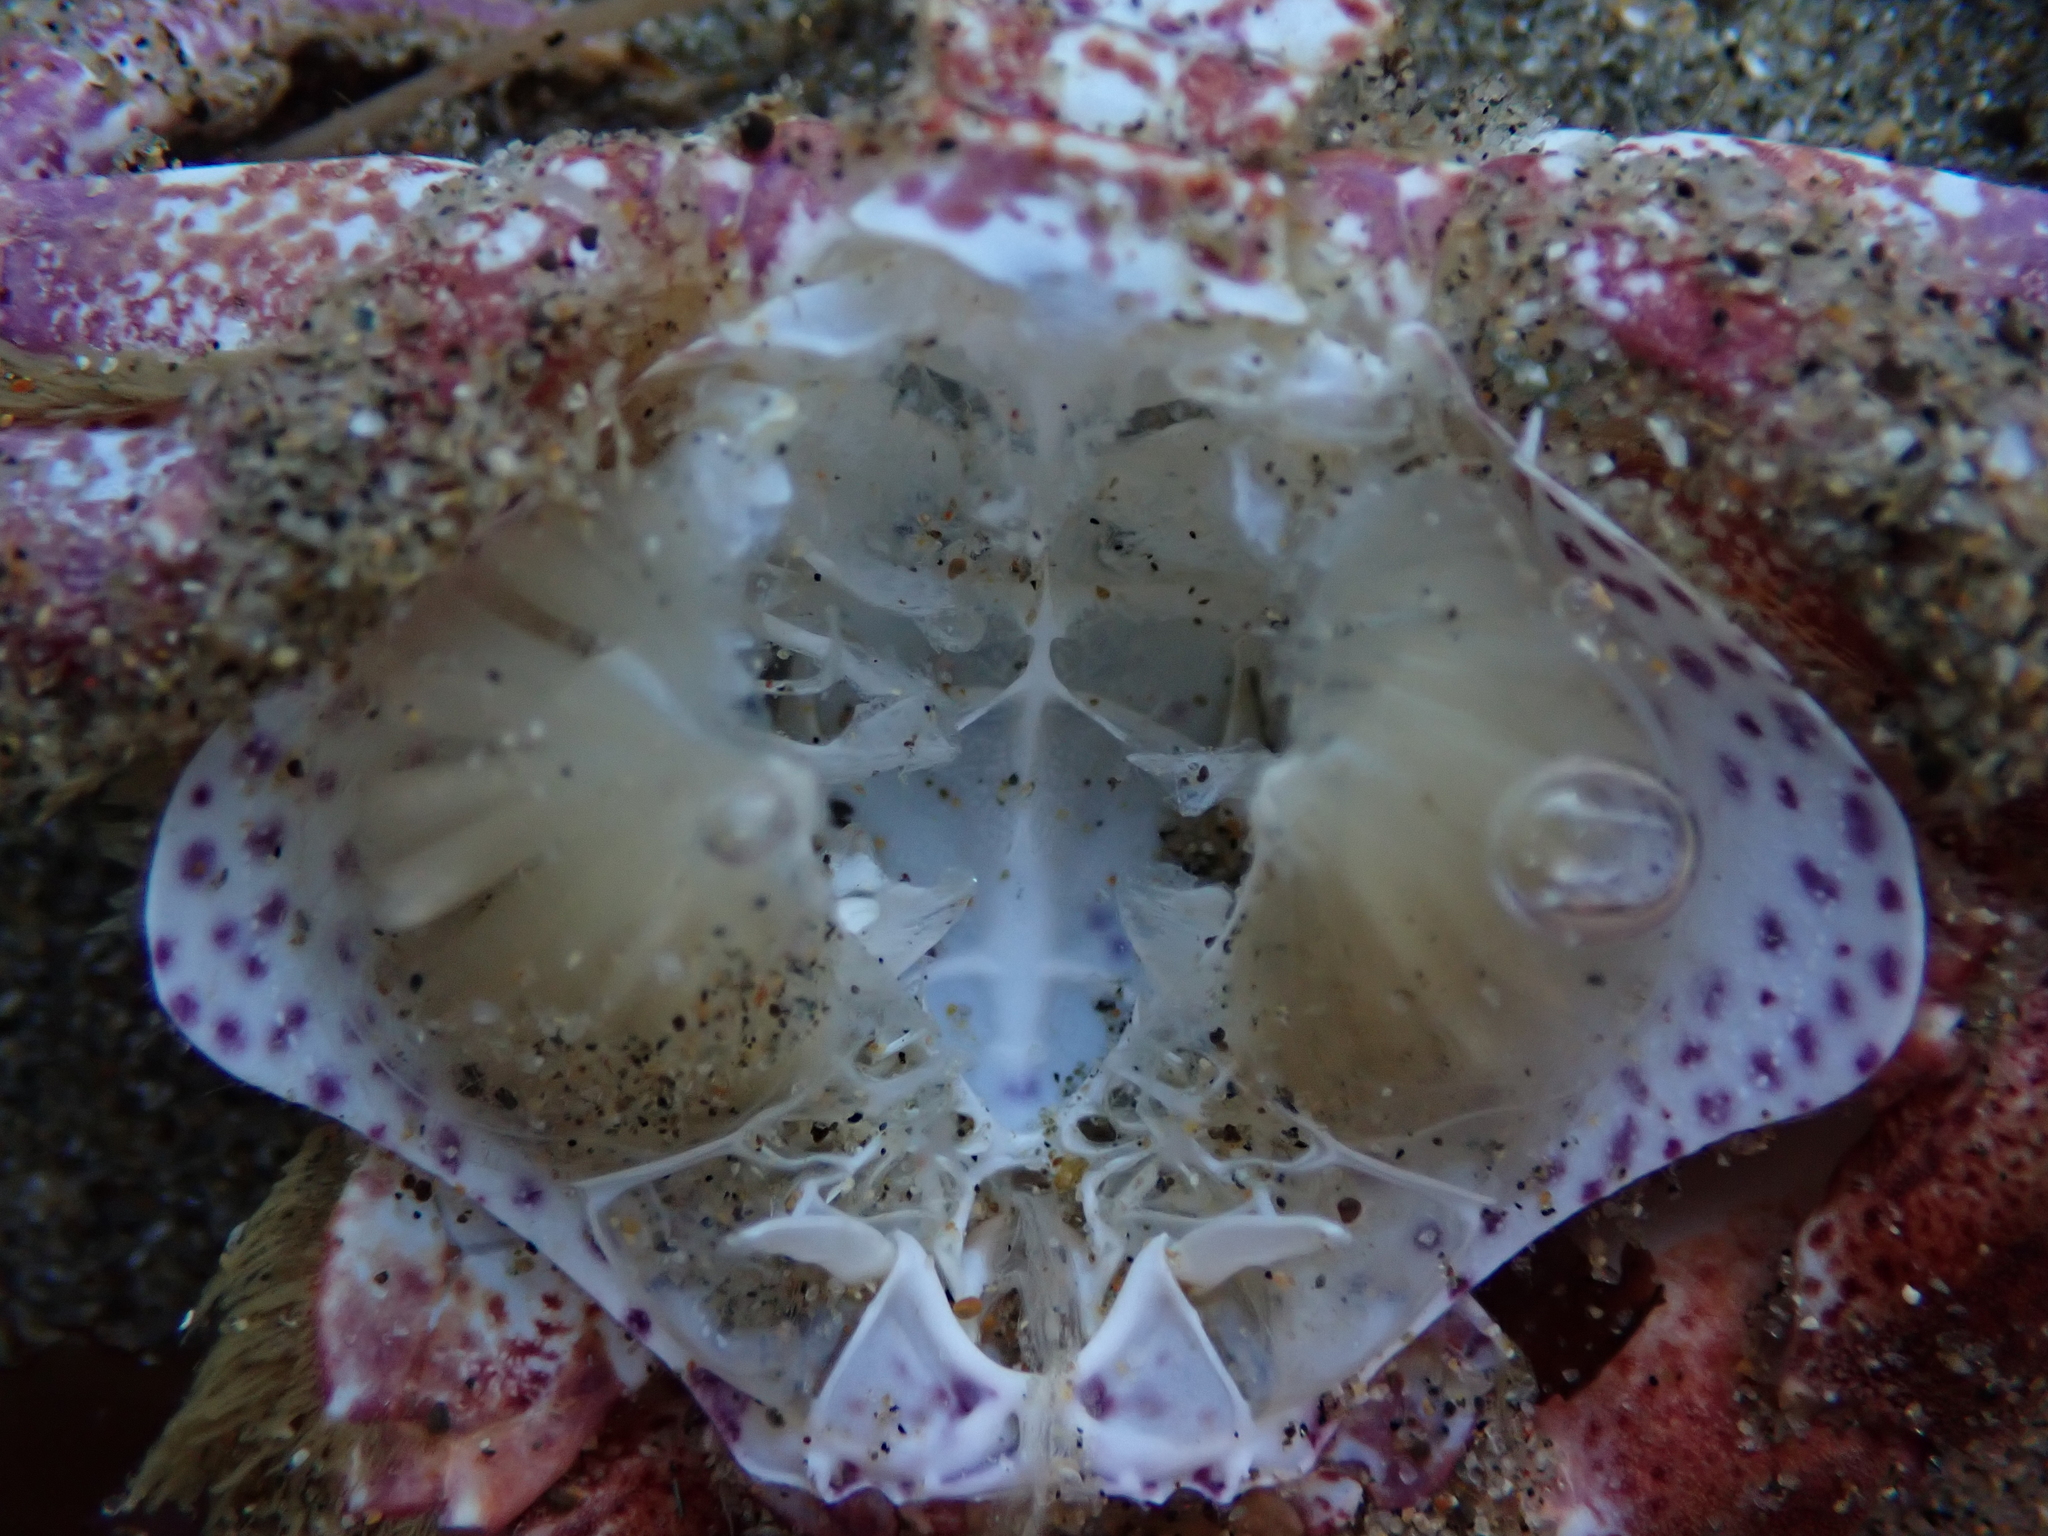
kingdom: Animalia
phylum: Arthropoda
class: Malacostraca
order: Decapoda
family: Cancridae
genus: Romaleon
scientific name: Romaleon antennarium
